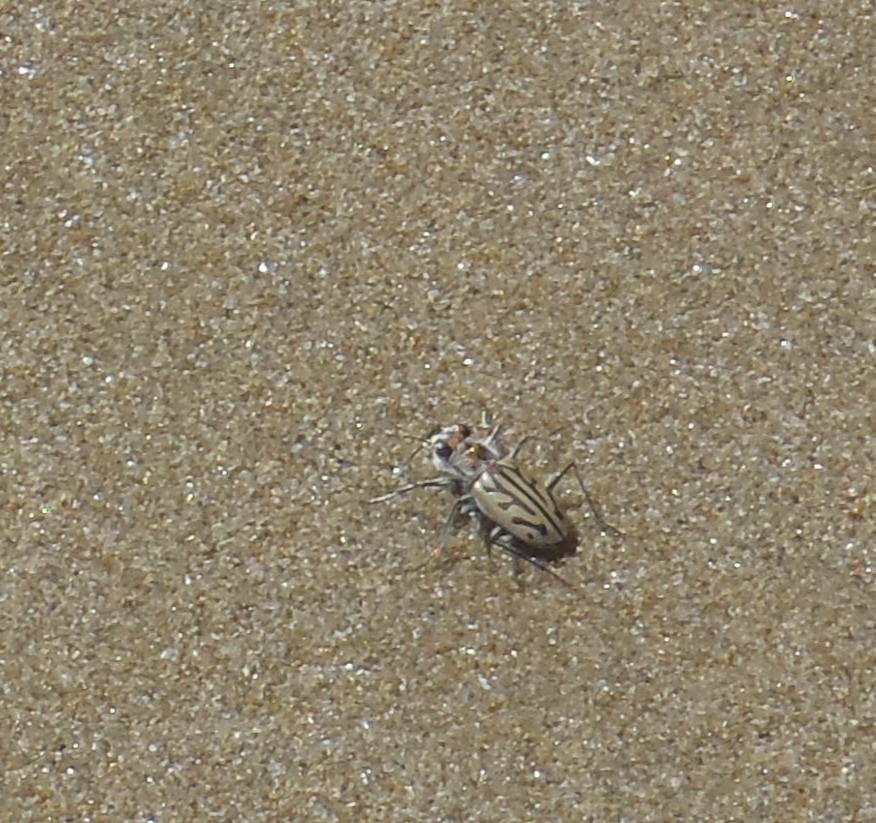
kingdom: Animalia
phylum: Arthropoda
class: Insecta
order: Coleoptera
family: Carabidae
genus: Habrodera
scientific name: Habrodera capensis
